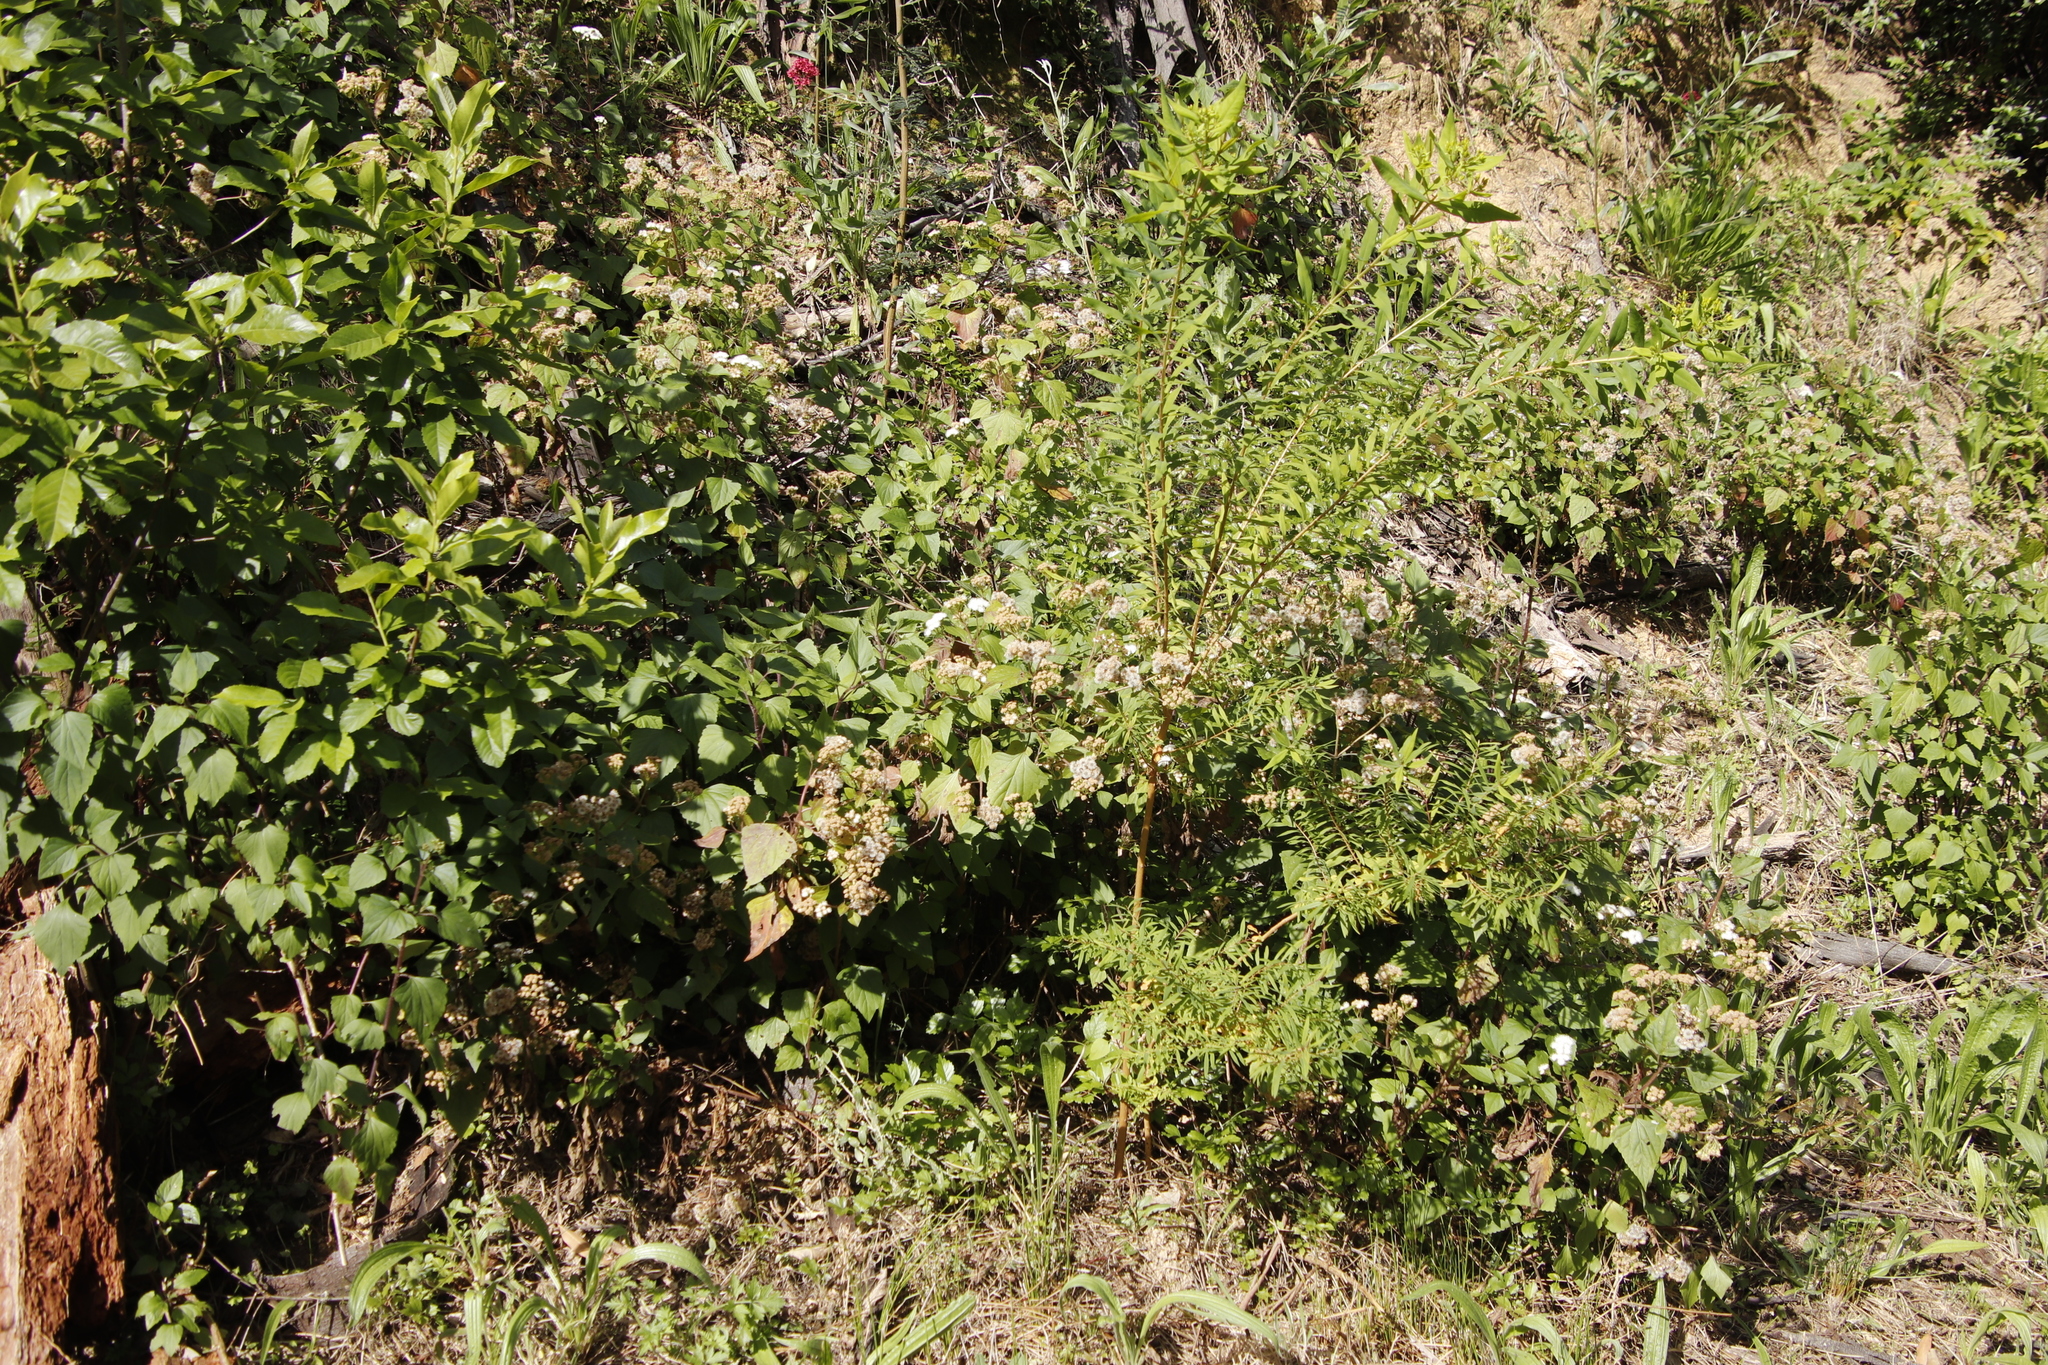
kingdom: Plantae
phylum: Tracheophyta
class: Magnoliopsida
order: Asterales
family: Asteraceae
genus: Ageratina
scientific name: Ageratina adenophora
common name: Sticky snakeroot
